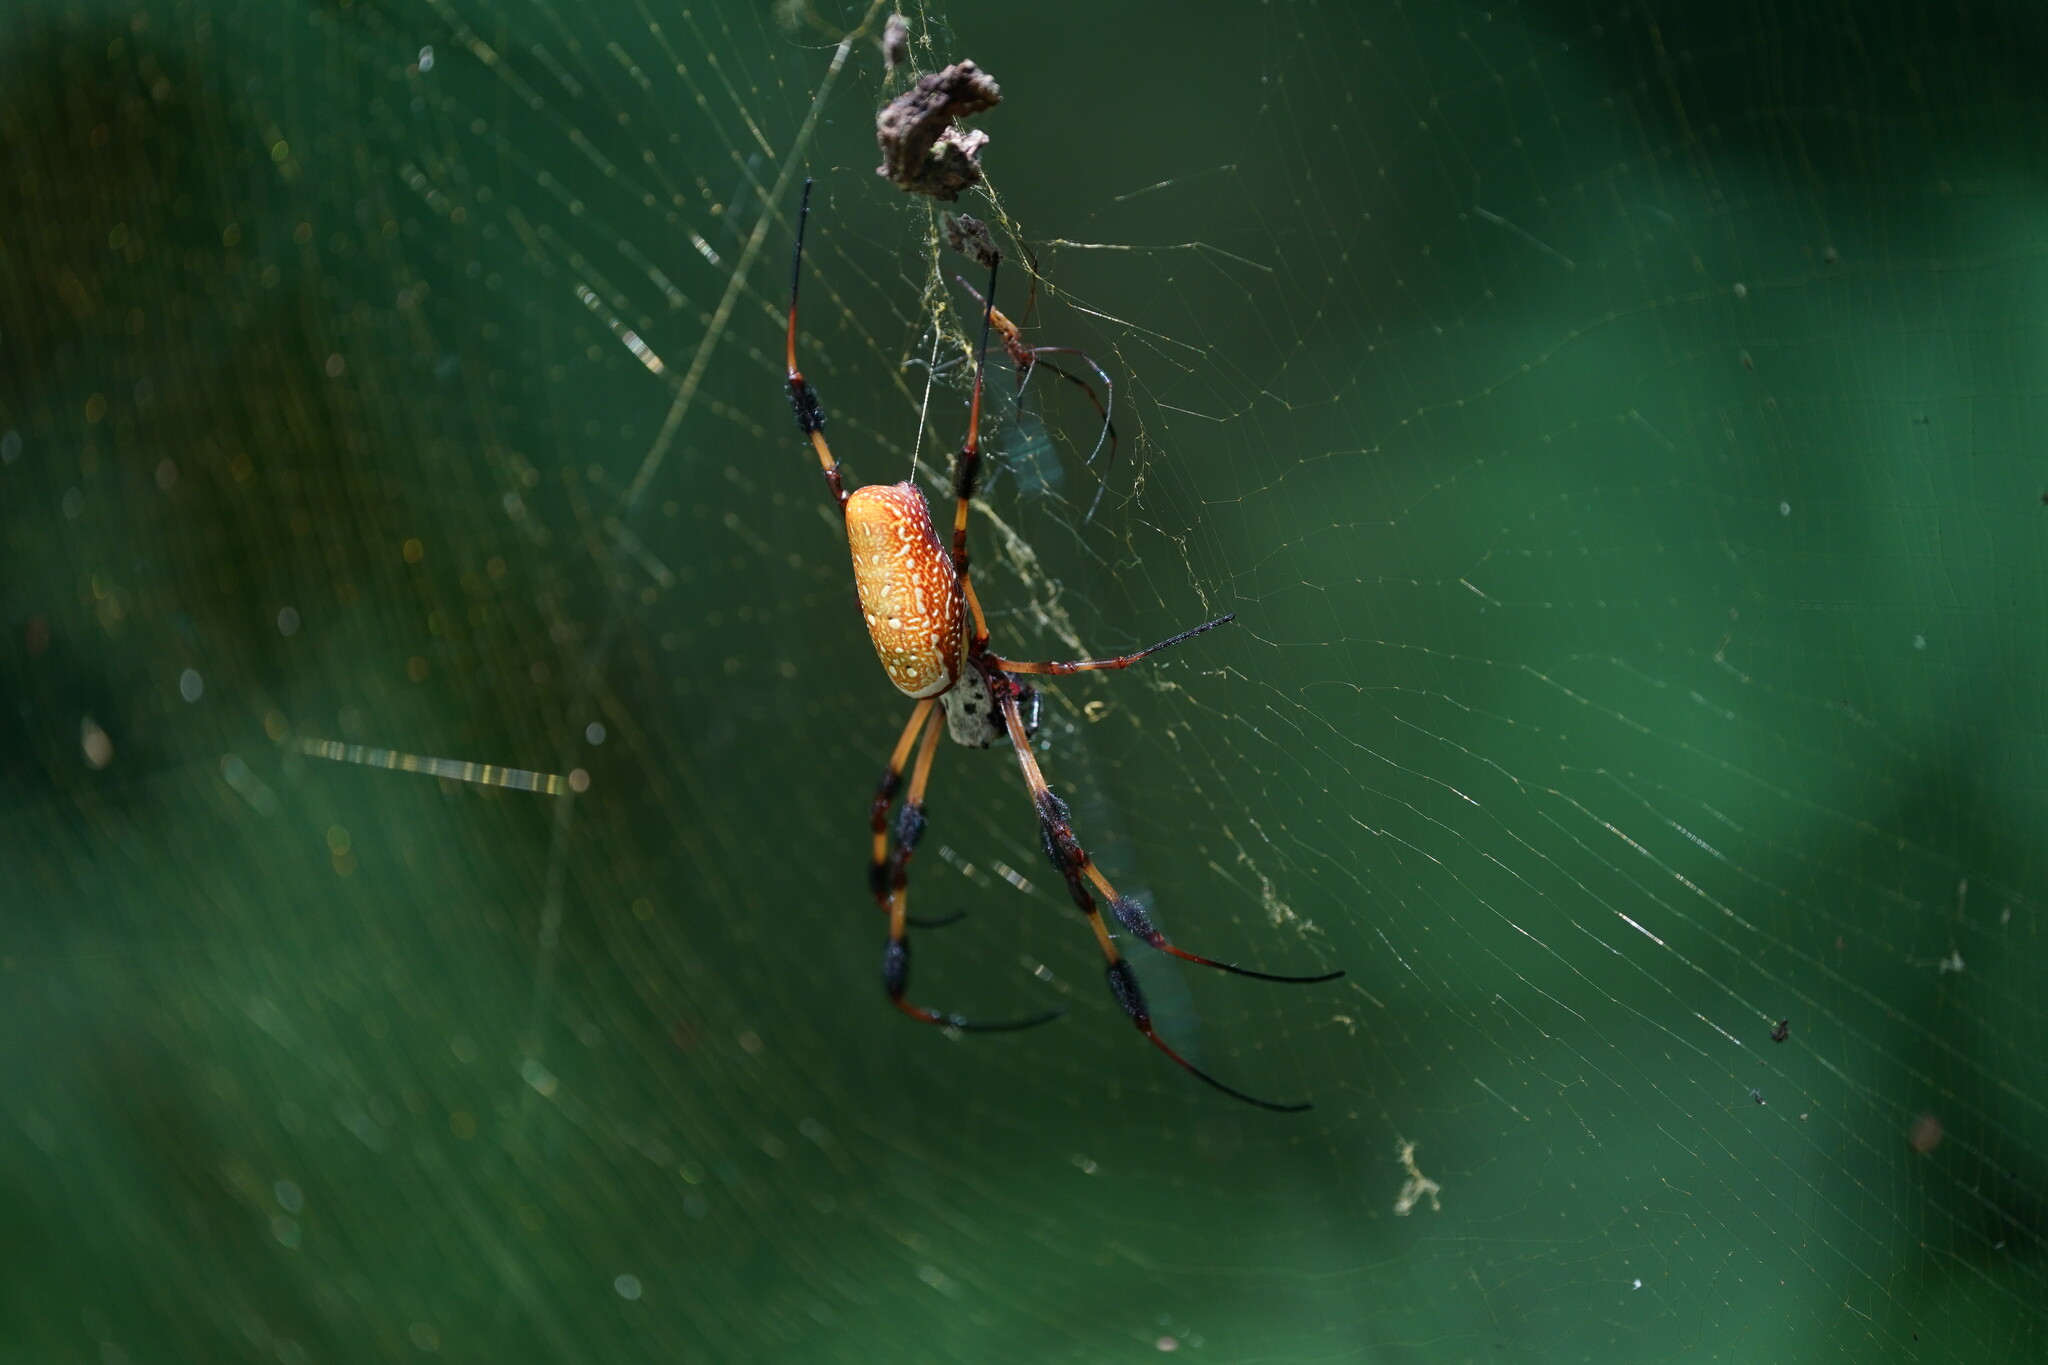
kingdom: Animalia
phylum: Arthropoda
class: Arachnida
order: Araneae
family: Araneidae
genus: Trichonephila
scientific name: Trichonephila clavipes
